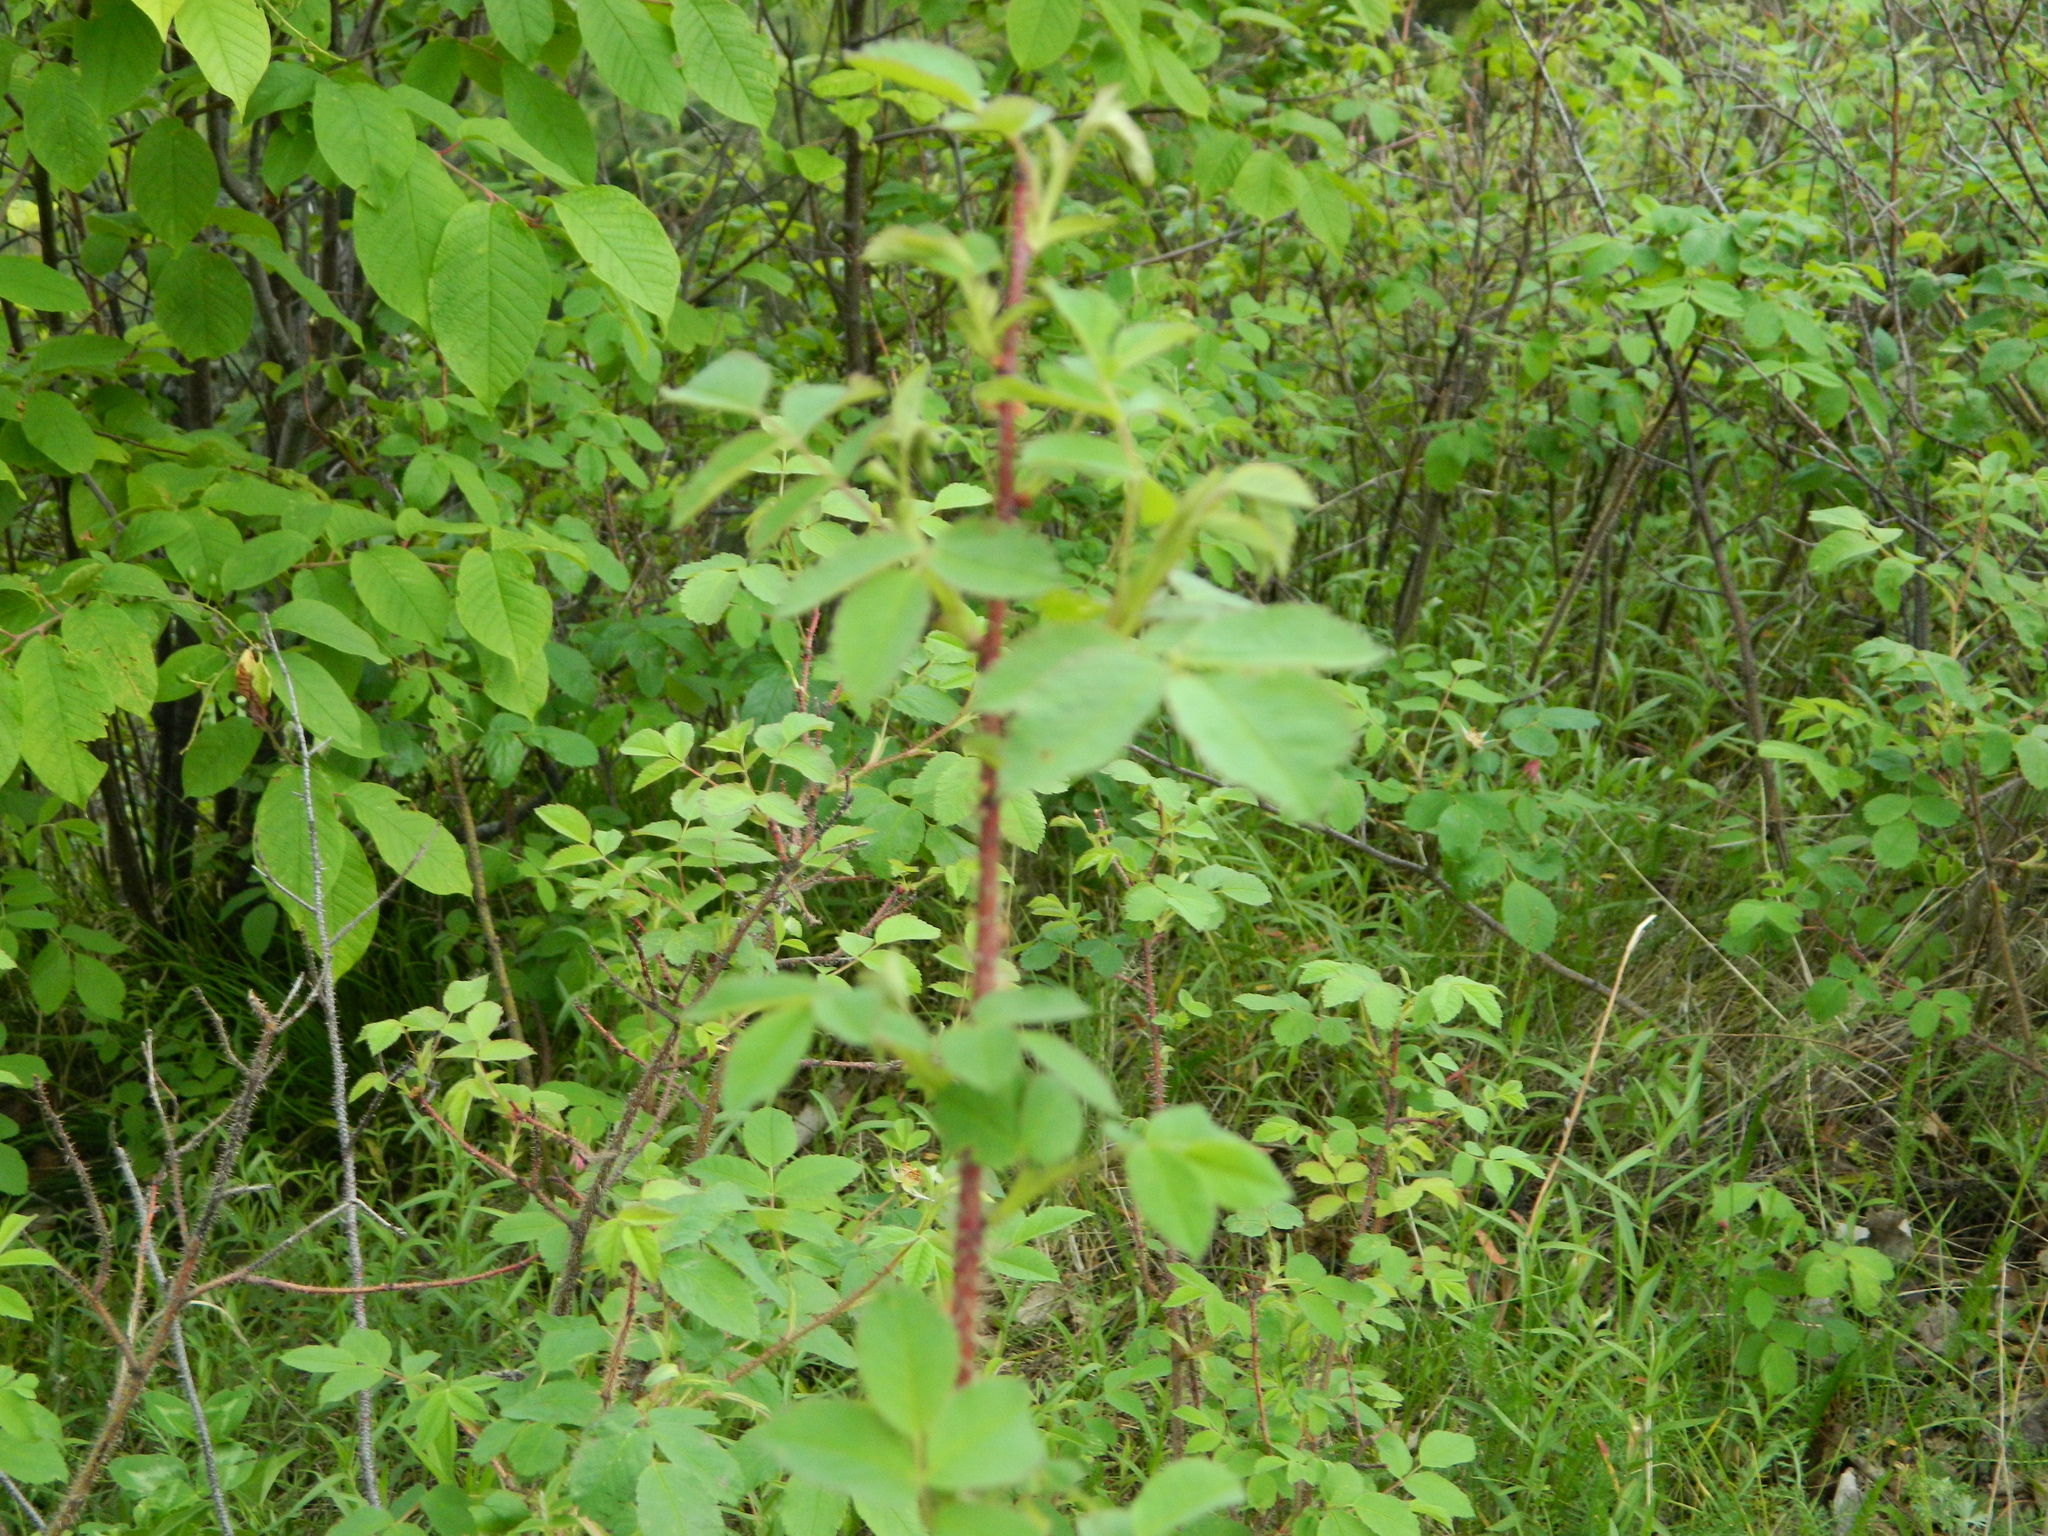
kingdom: Plantae
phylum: Tracheophyta
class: Magnoliopsida
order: Rosales
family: Rosaceae
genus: Rosa
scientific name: Rosa acicularis
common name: Prickly rose
